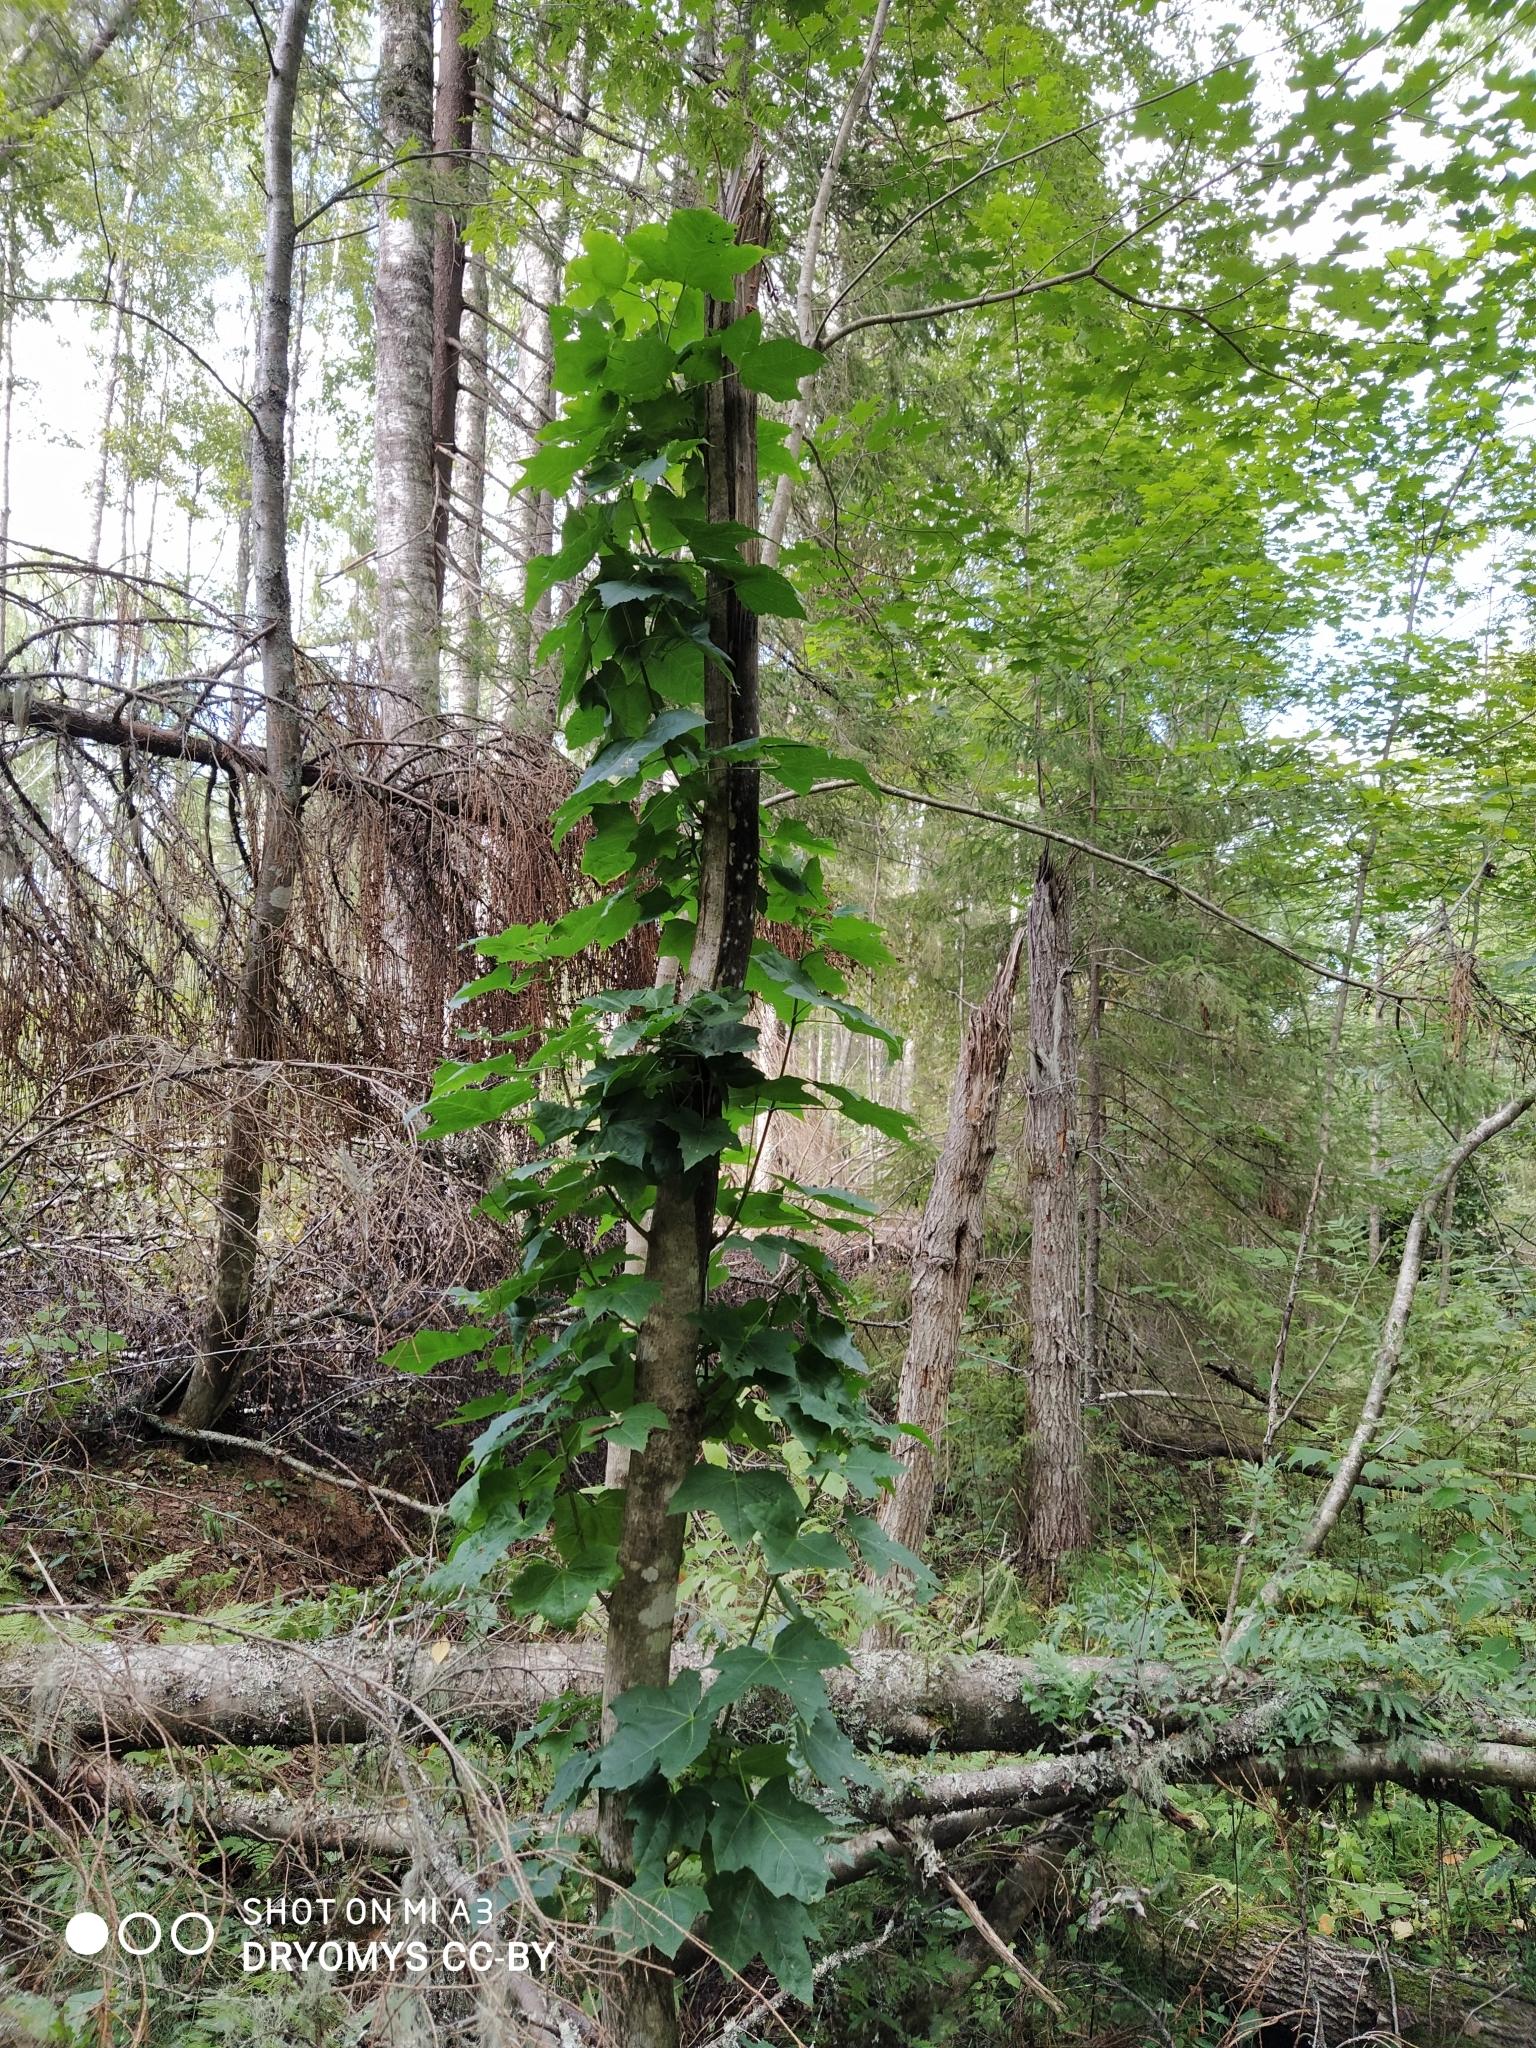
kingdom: Plantae
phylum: Tracheophyta
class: Magnoliopsida
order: Sapindales
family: Sapindaceae
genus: Acer
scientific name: Acer platanoides
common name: Norway maple
